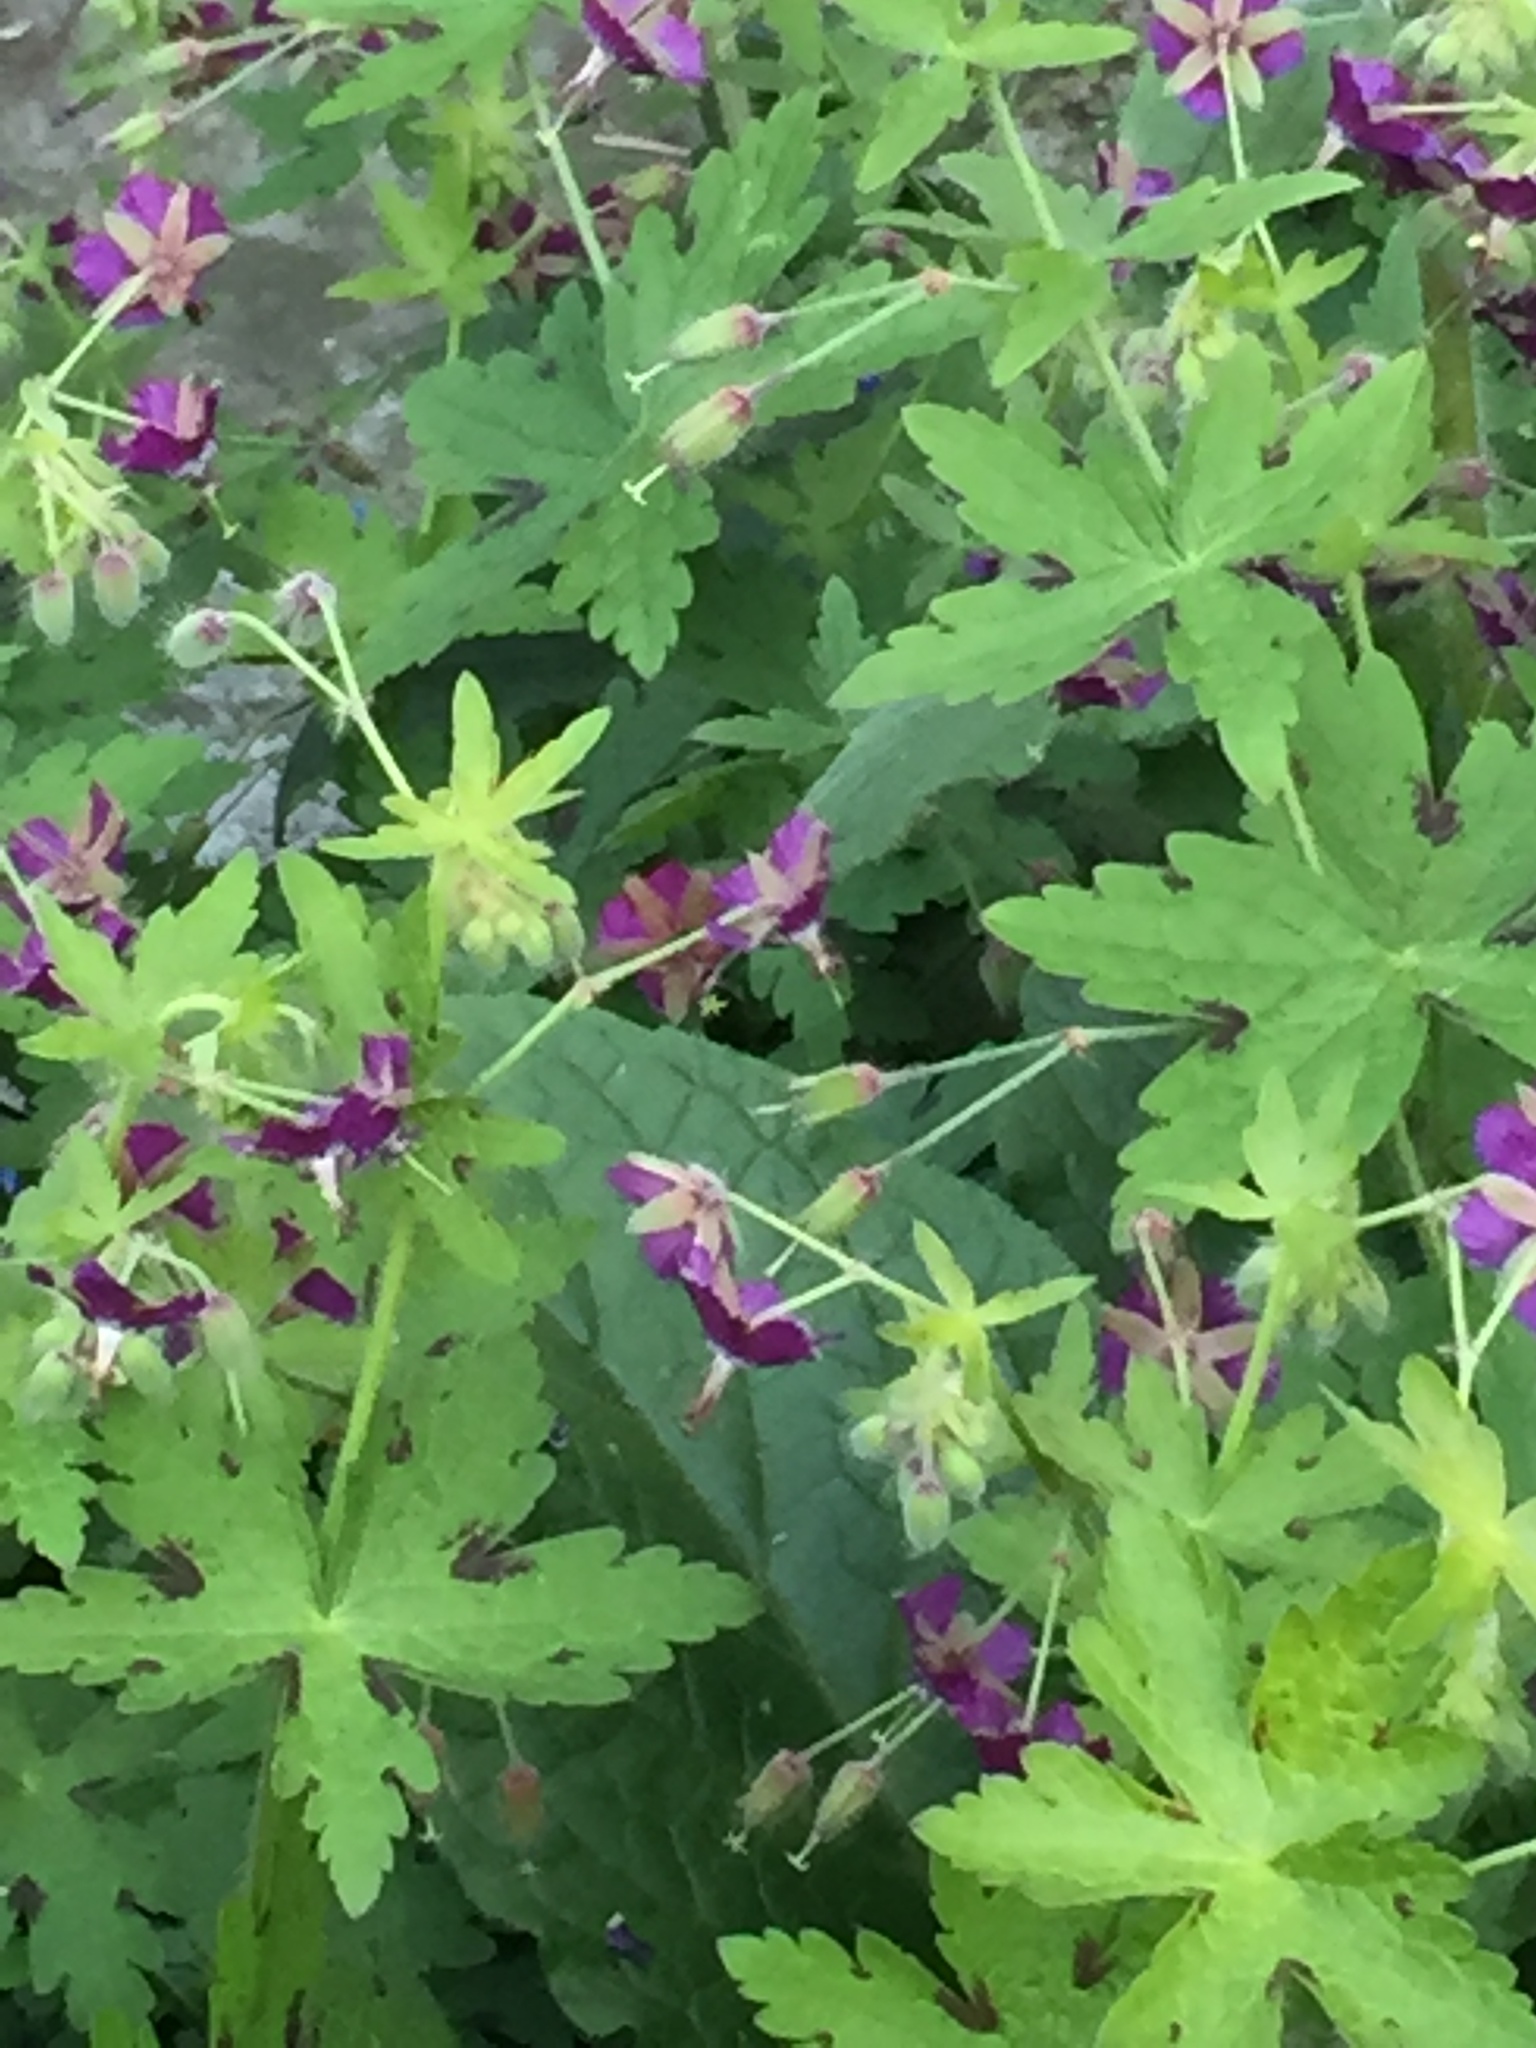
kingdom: Plantae
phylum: Tracheophyta
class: Magnoliopsida
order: Geraniales
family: Geraniaceae
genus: Geranium
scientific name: Geranium phaeum
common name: Dusky crane's-bill
